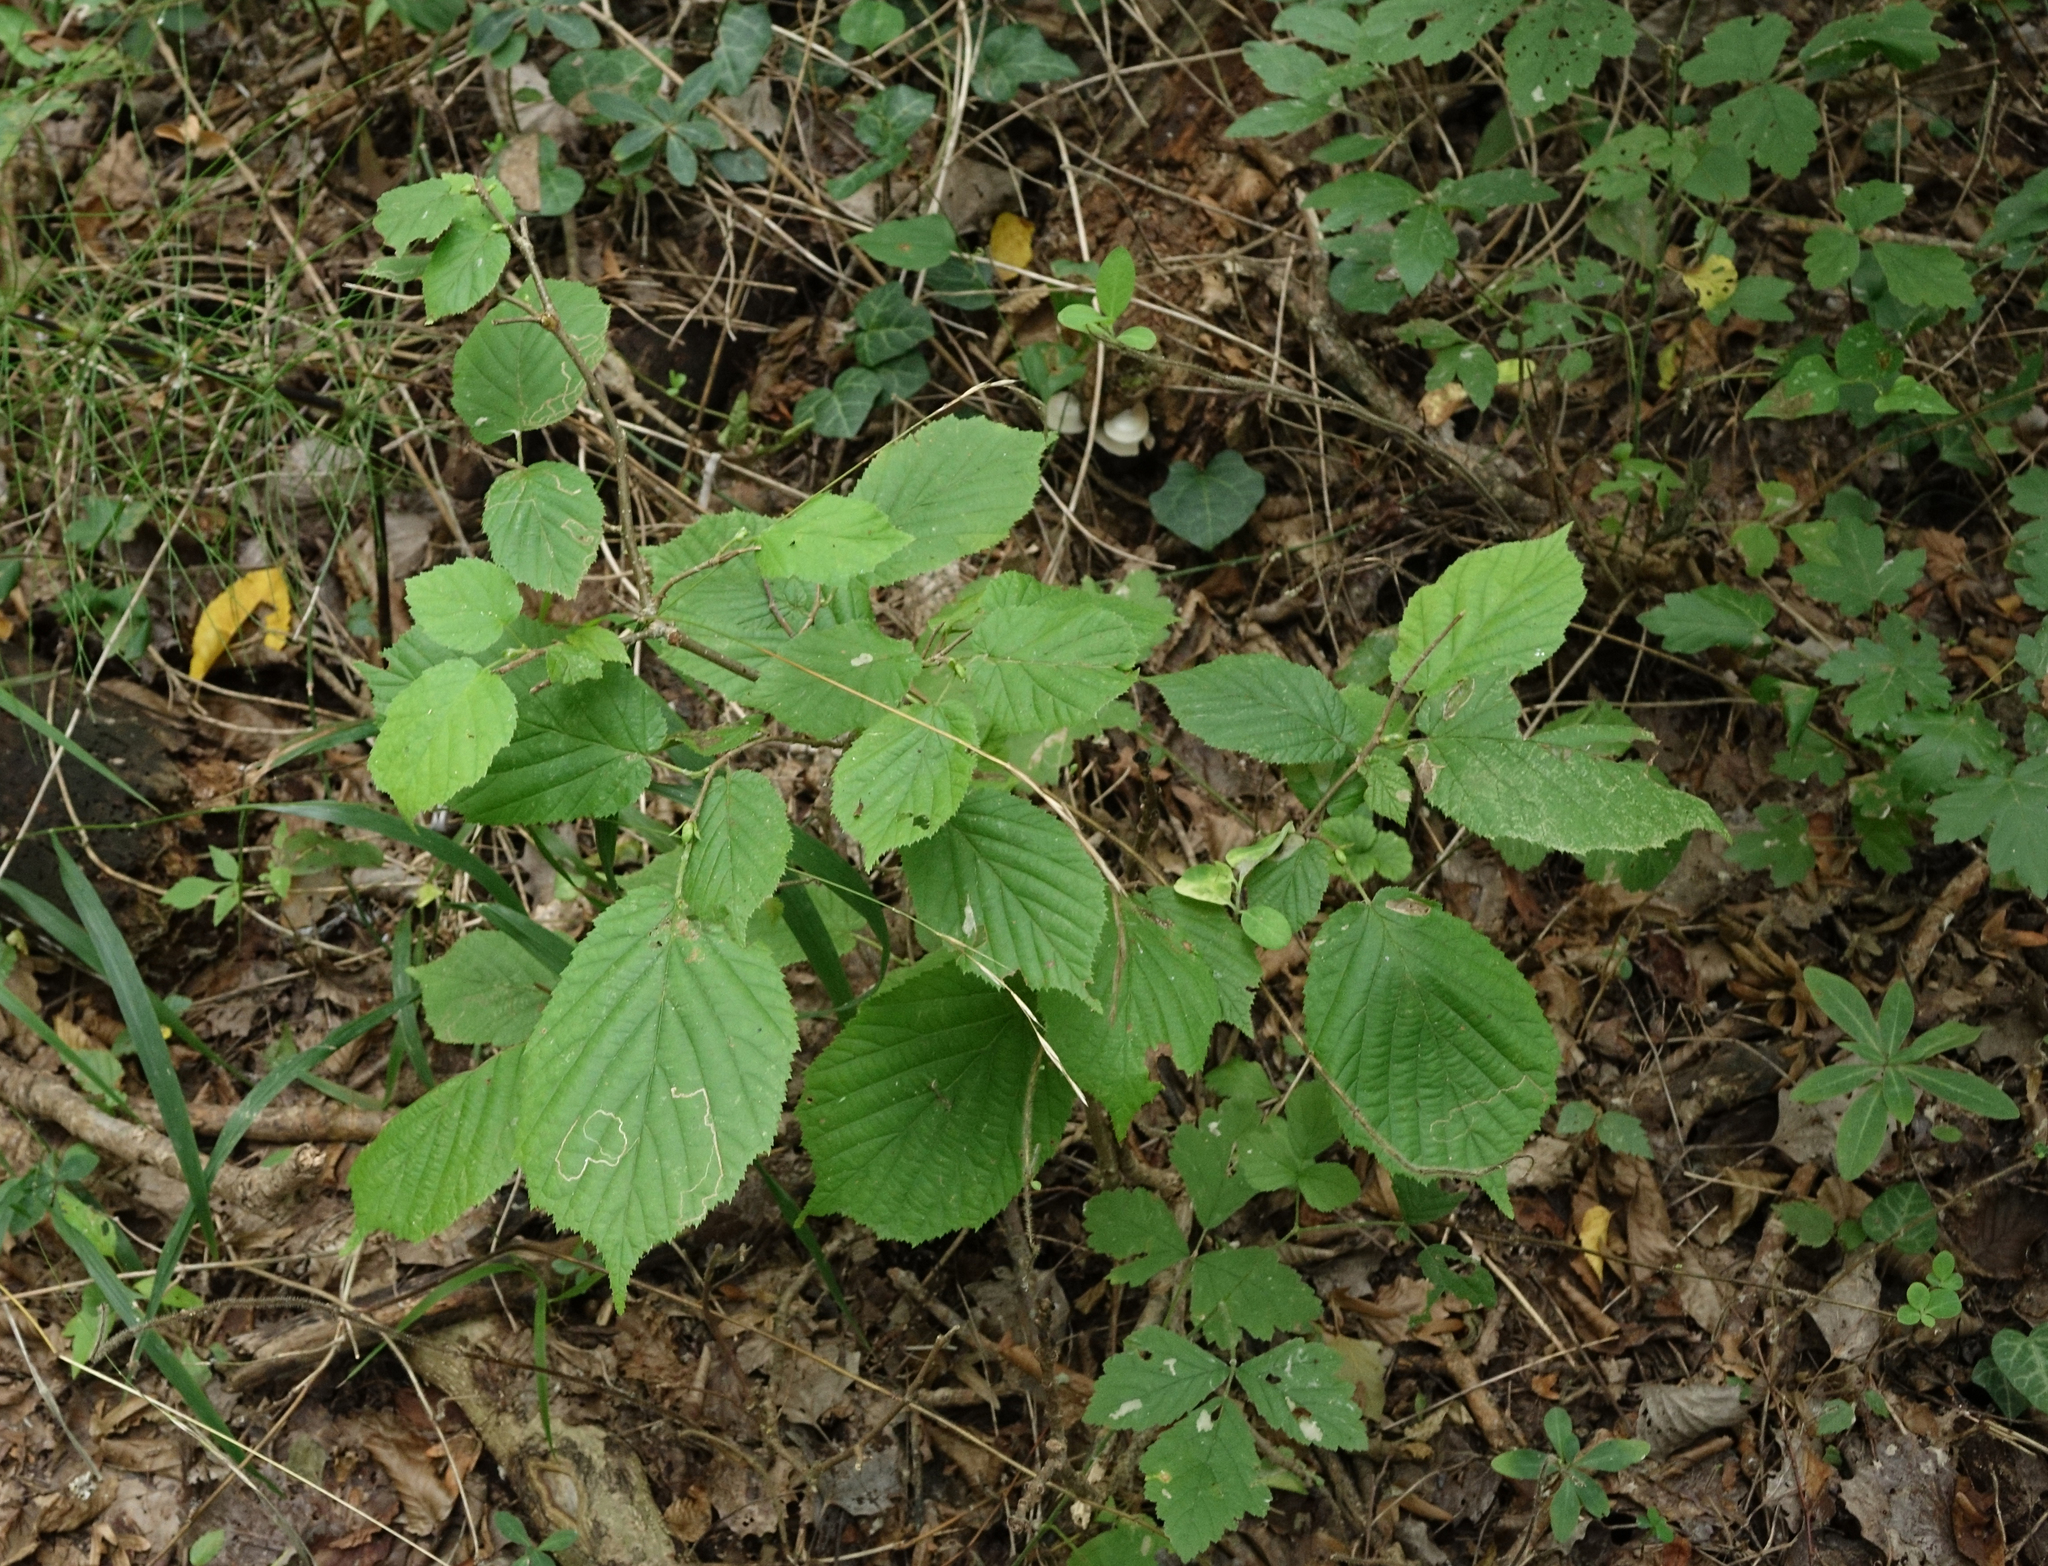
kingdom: Plantae
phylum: Tracheophyta
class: Magnoliopsida
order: Fagales
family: Betulaceae
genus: Corylus
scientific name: Corylus avellana
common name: European hazel
